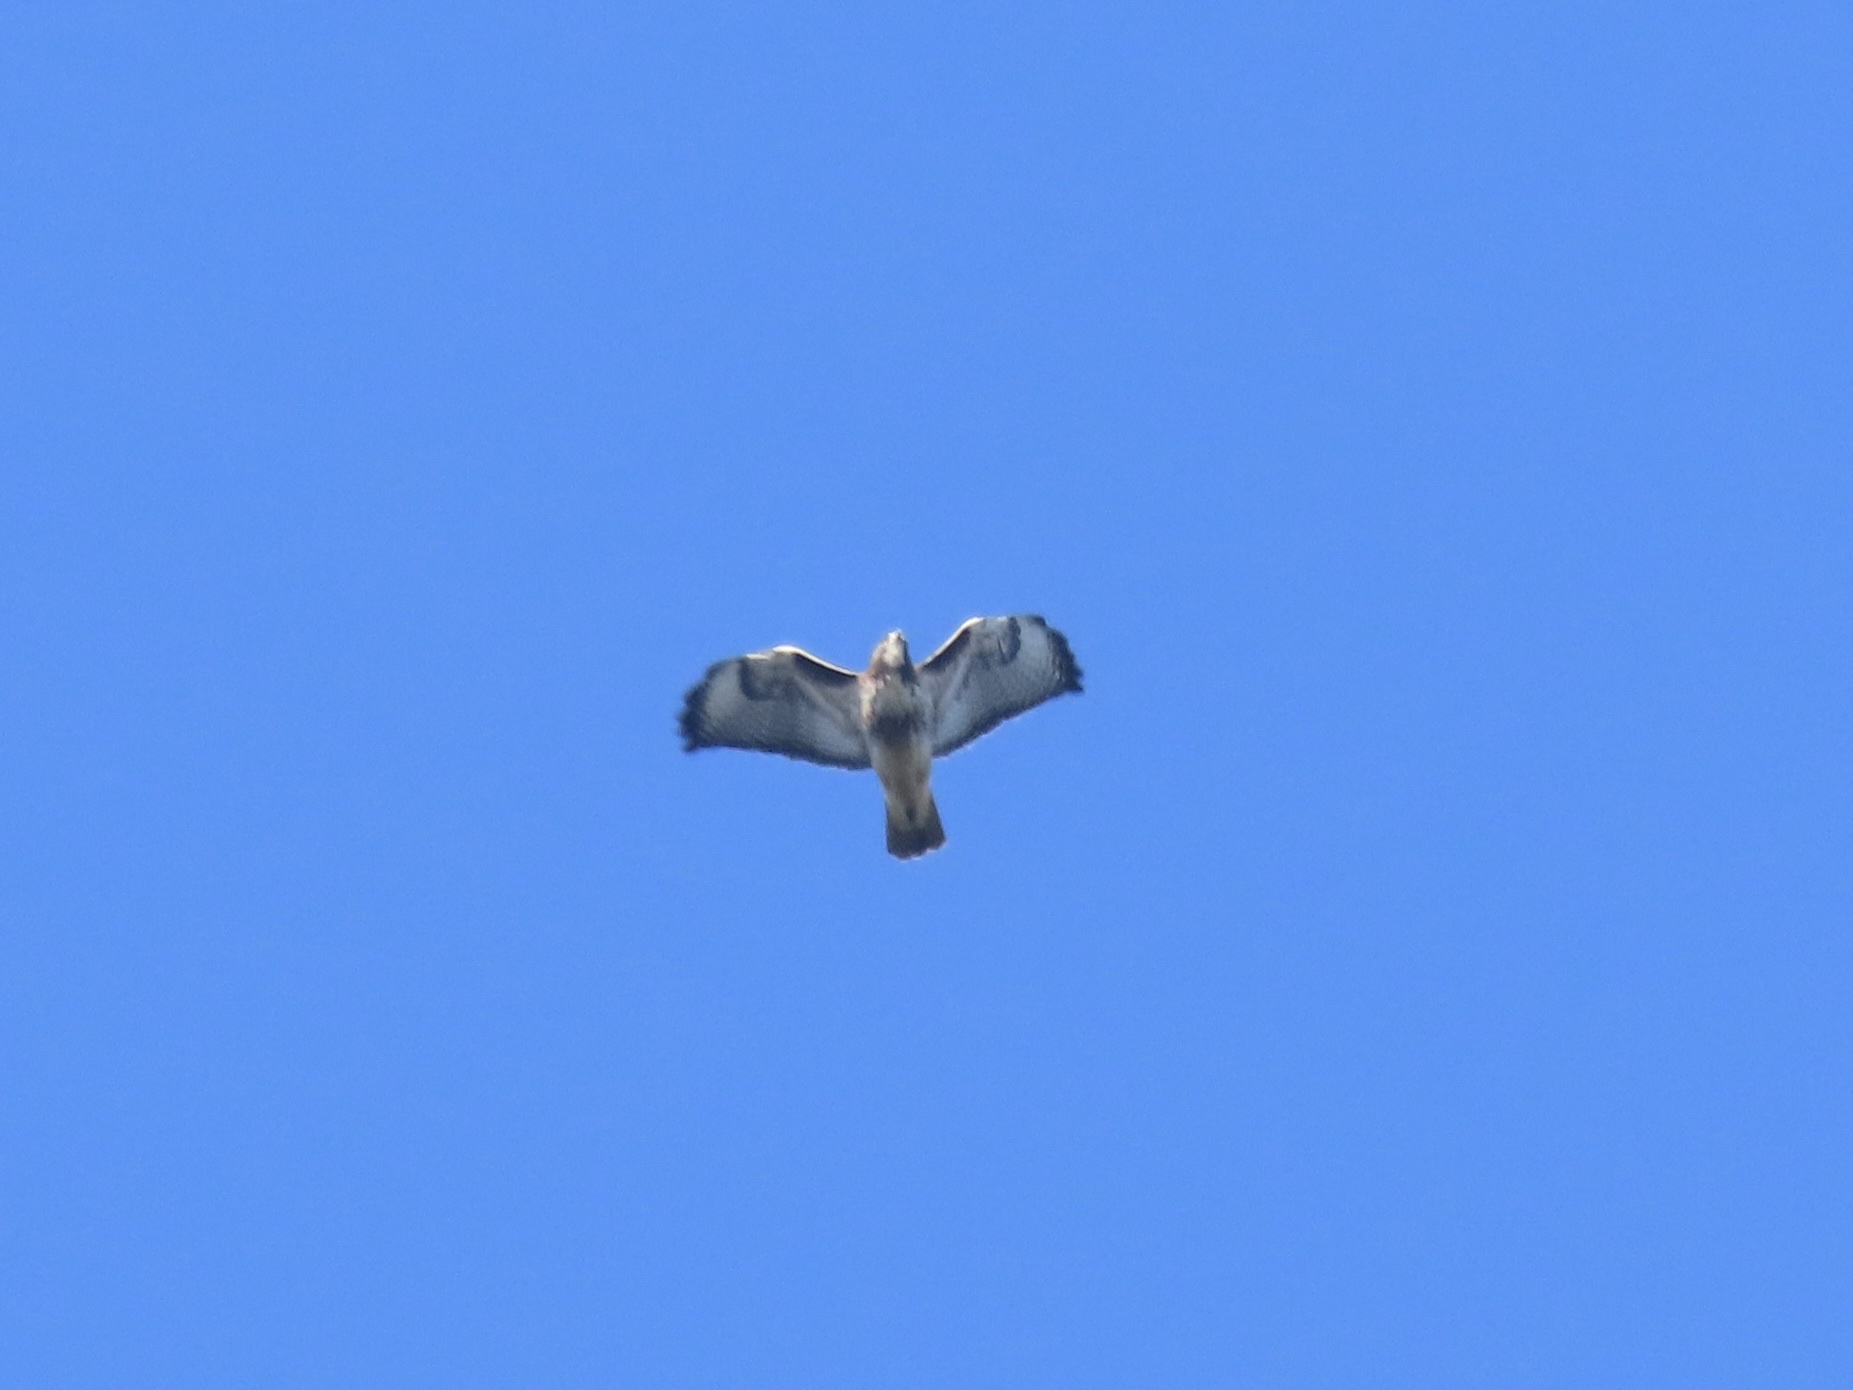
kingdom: Animalia
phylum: Chordata
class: Aves
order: Accipitriformes
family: Accipitridae
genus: Buteo
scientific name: Buteo jamaicensis
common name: Red-tailed hawk
